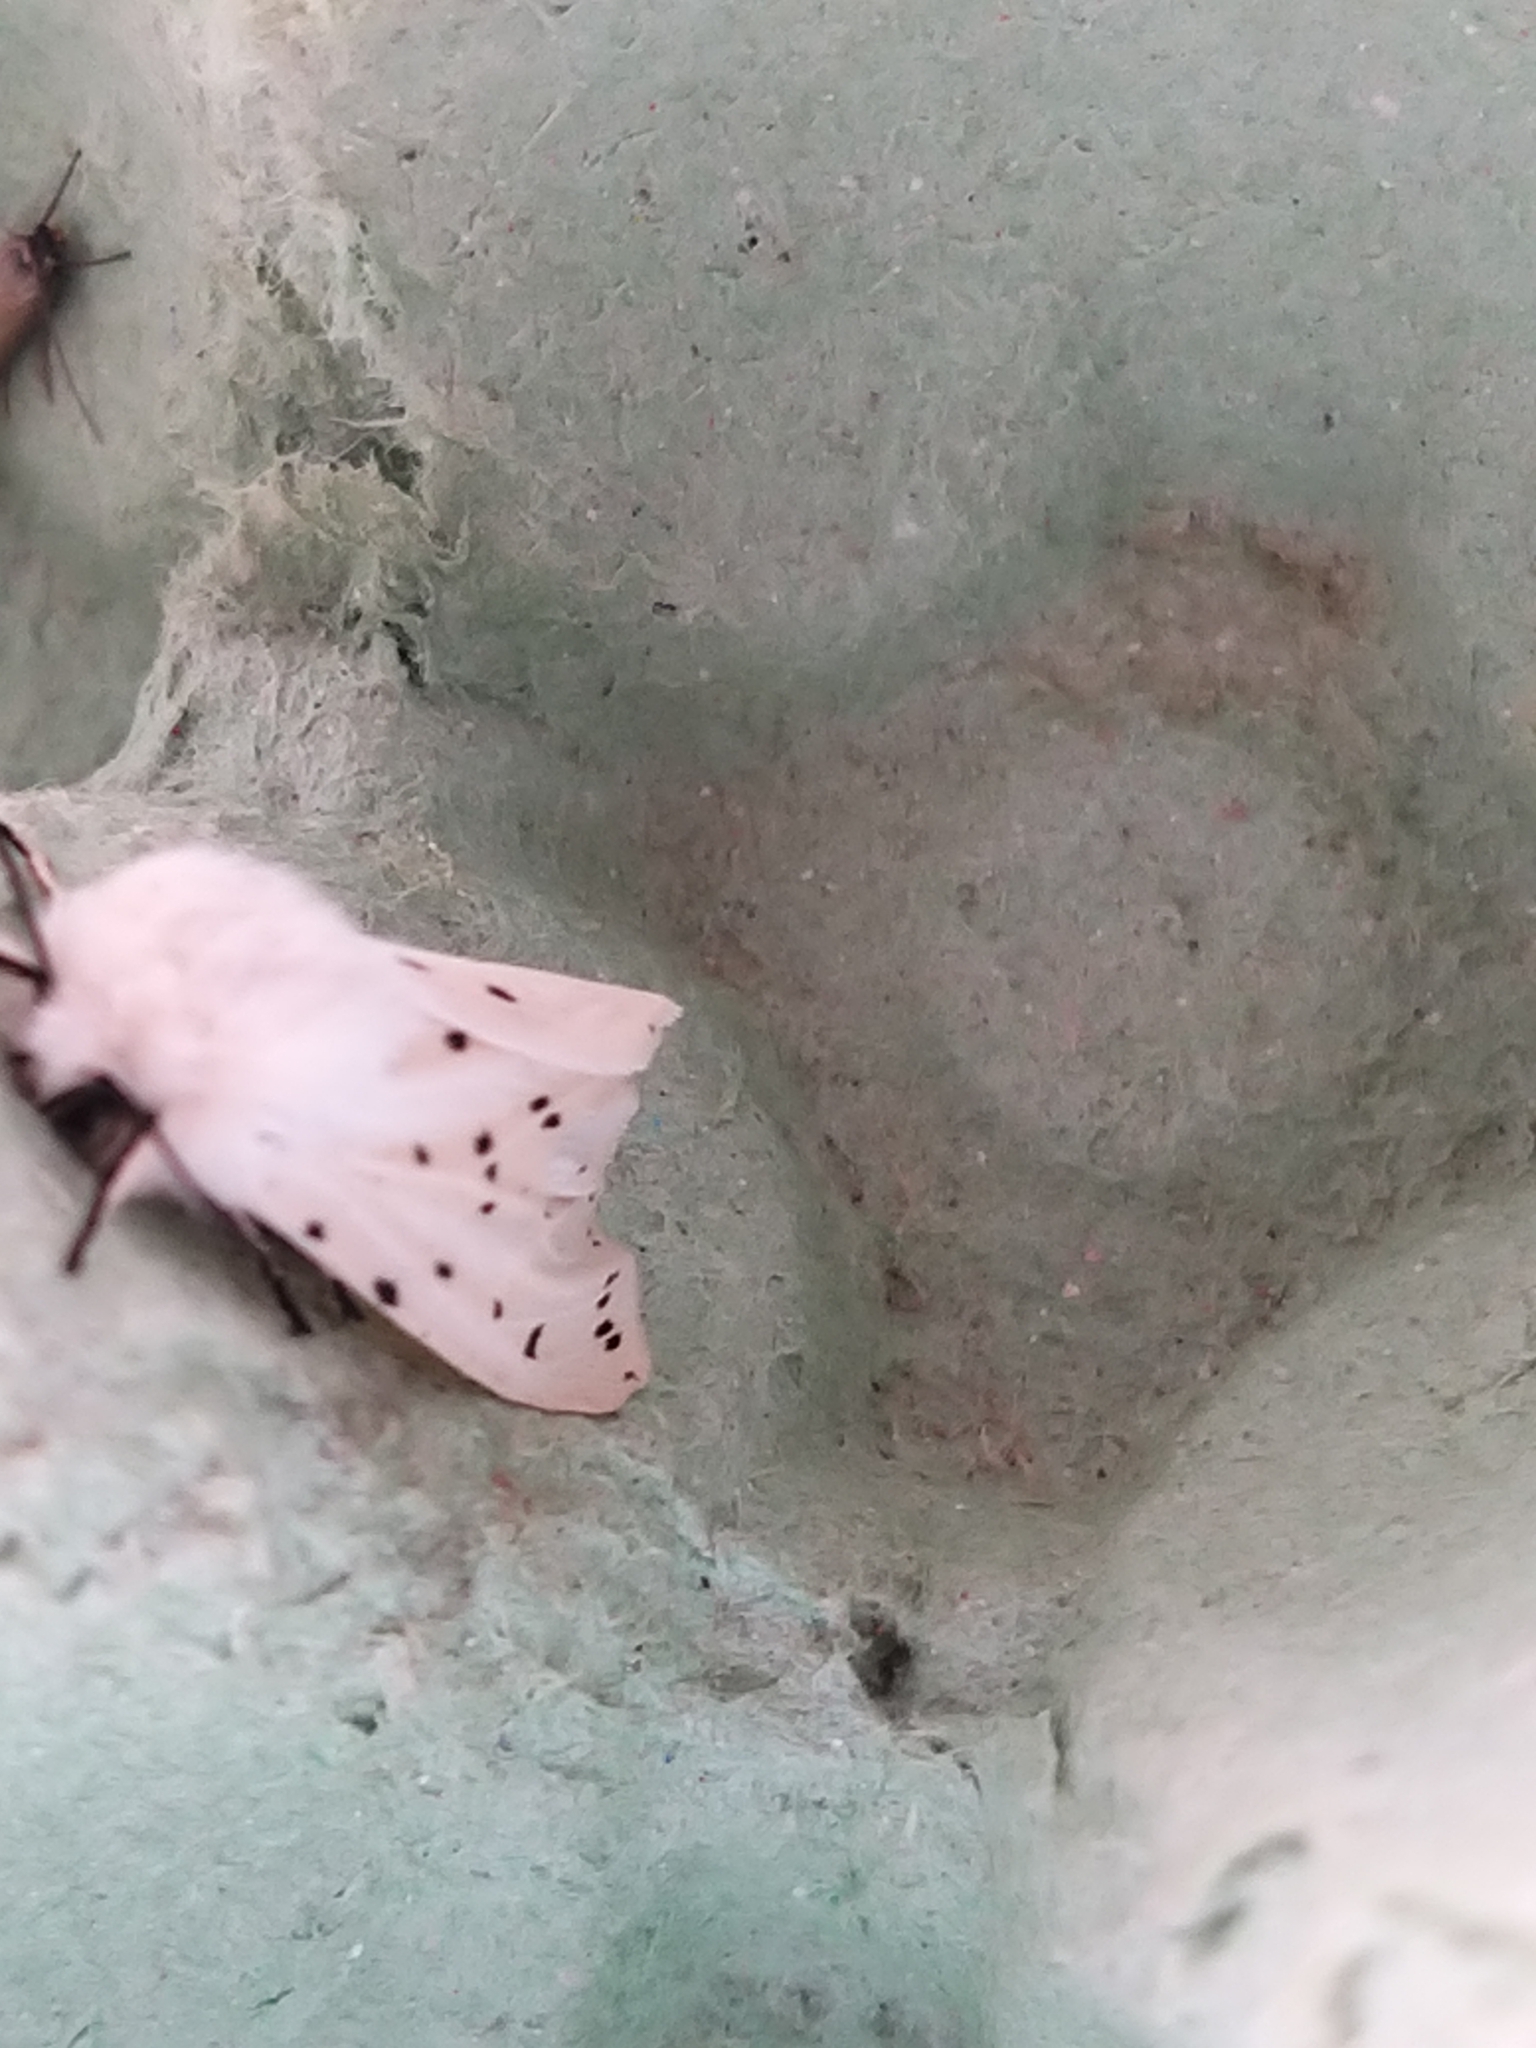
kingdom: Animalia
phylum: Arthropoda
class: Insecta
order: Lepidoptera
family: Erebidae
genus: Spilosoma
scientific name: Spilosoma lubricipeda
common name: White ermine
